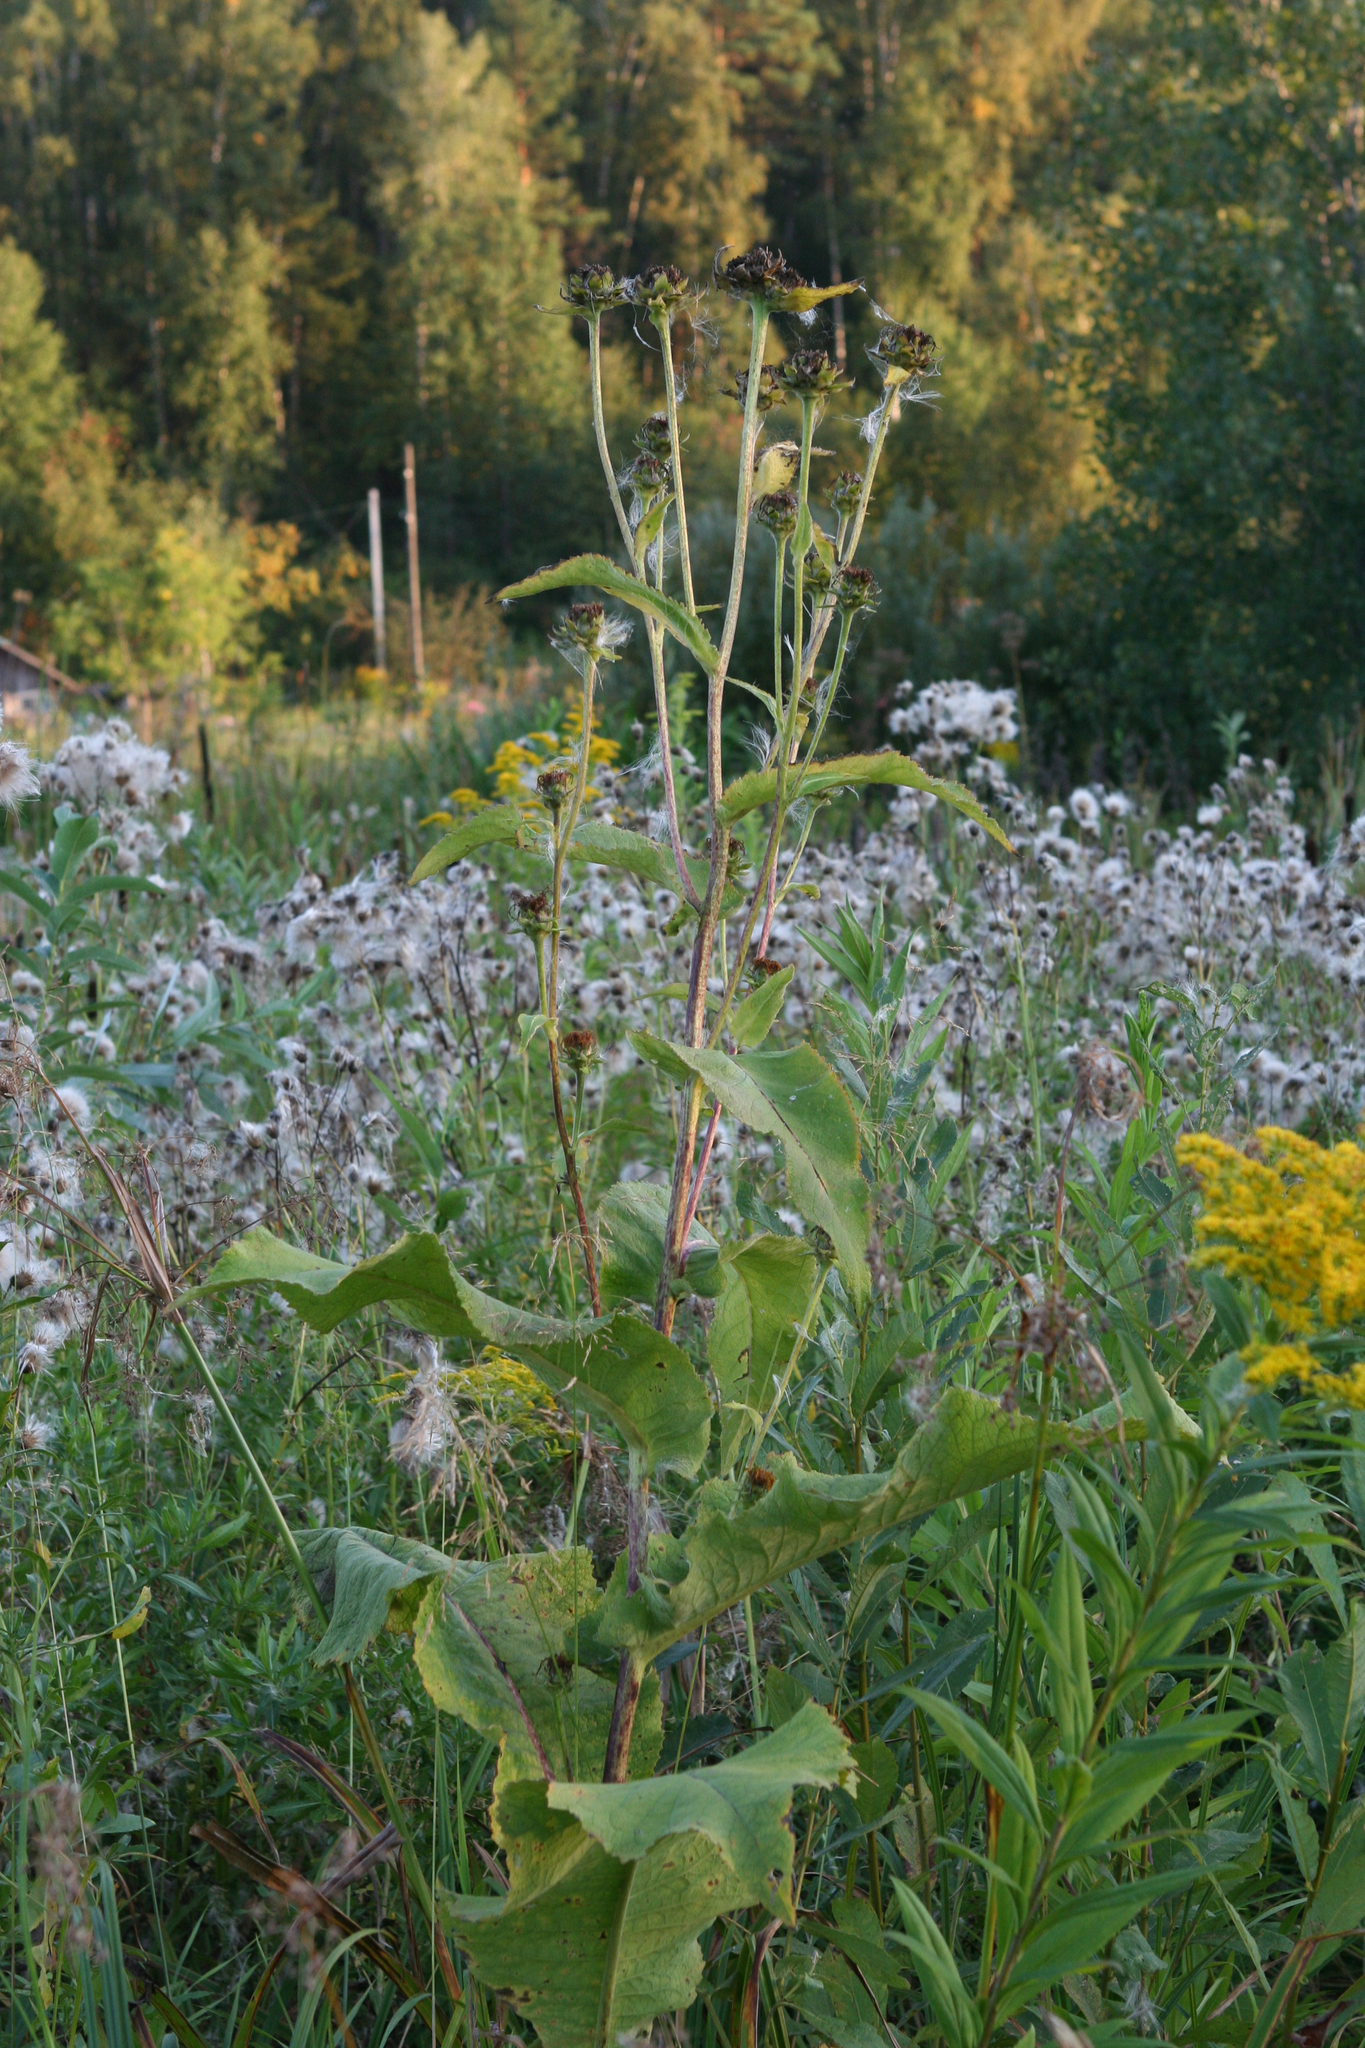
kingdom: Plantae
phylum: Tracheophyta
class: Magnoliopsida
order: Asterales
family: Asteraceae
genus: Inula
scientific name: Inula helenium
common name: Elecampane
